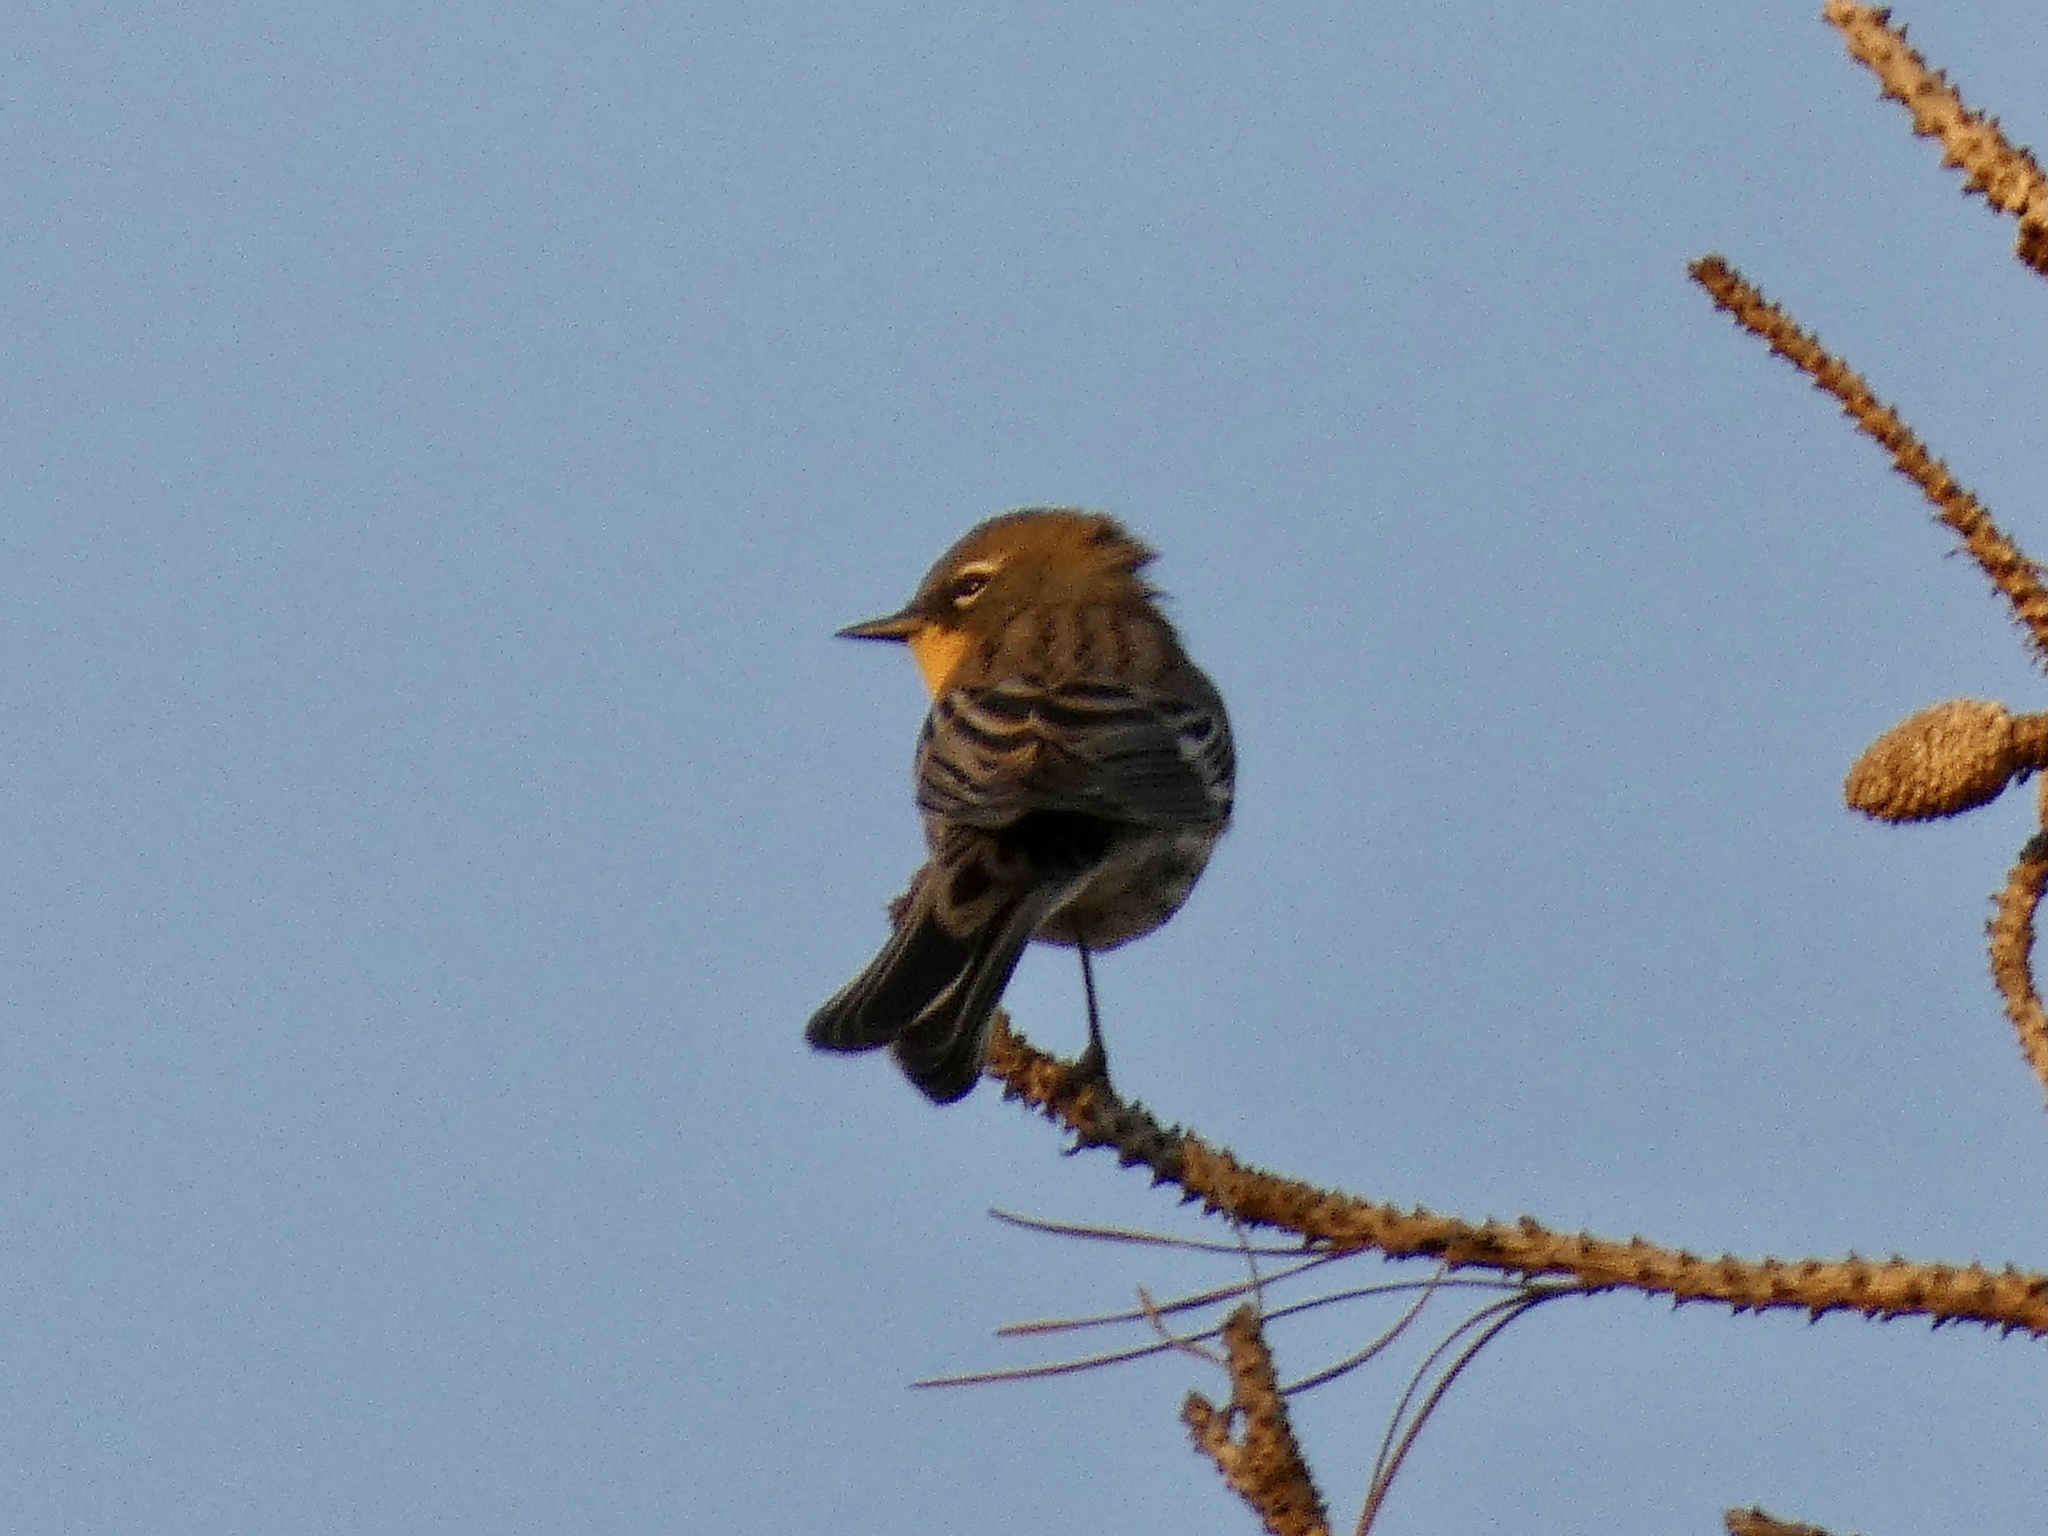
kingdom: Animalia
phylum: Chordata
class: Aves
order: Passeriformes
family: Parulidae
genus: Setophaga
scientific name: Setophaga auduboni
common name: Audubon's warbler
